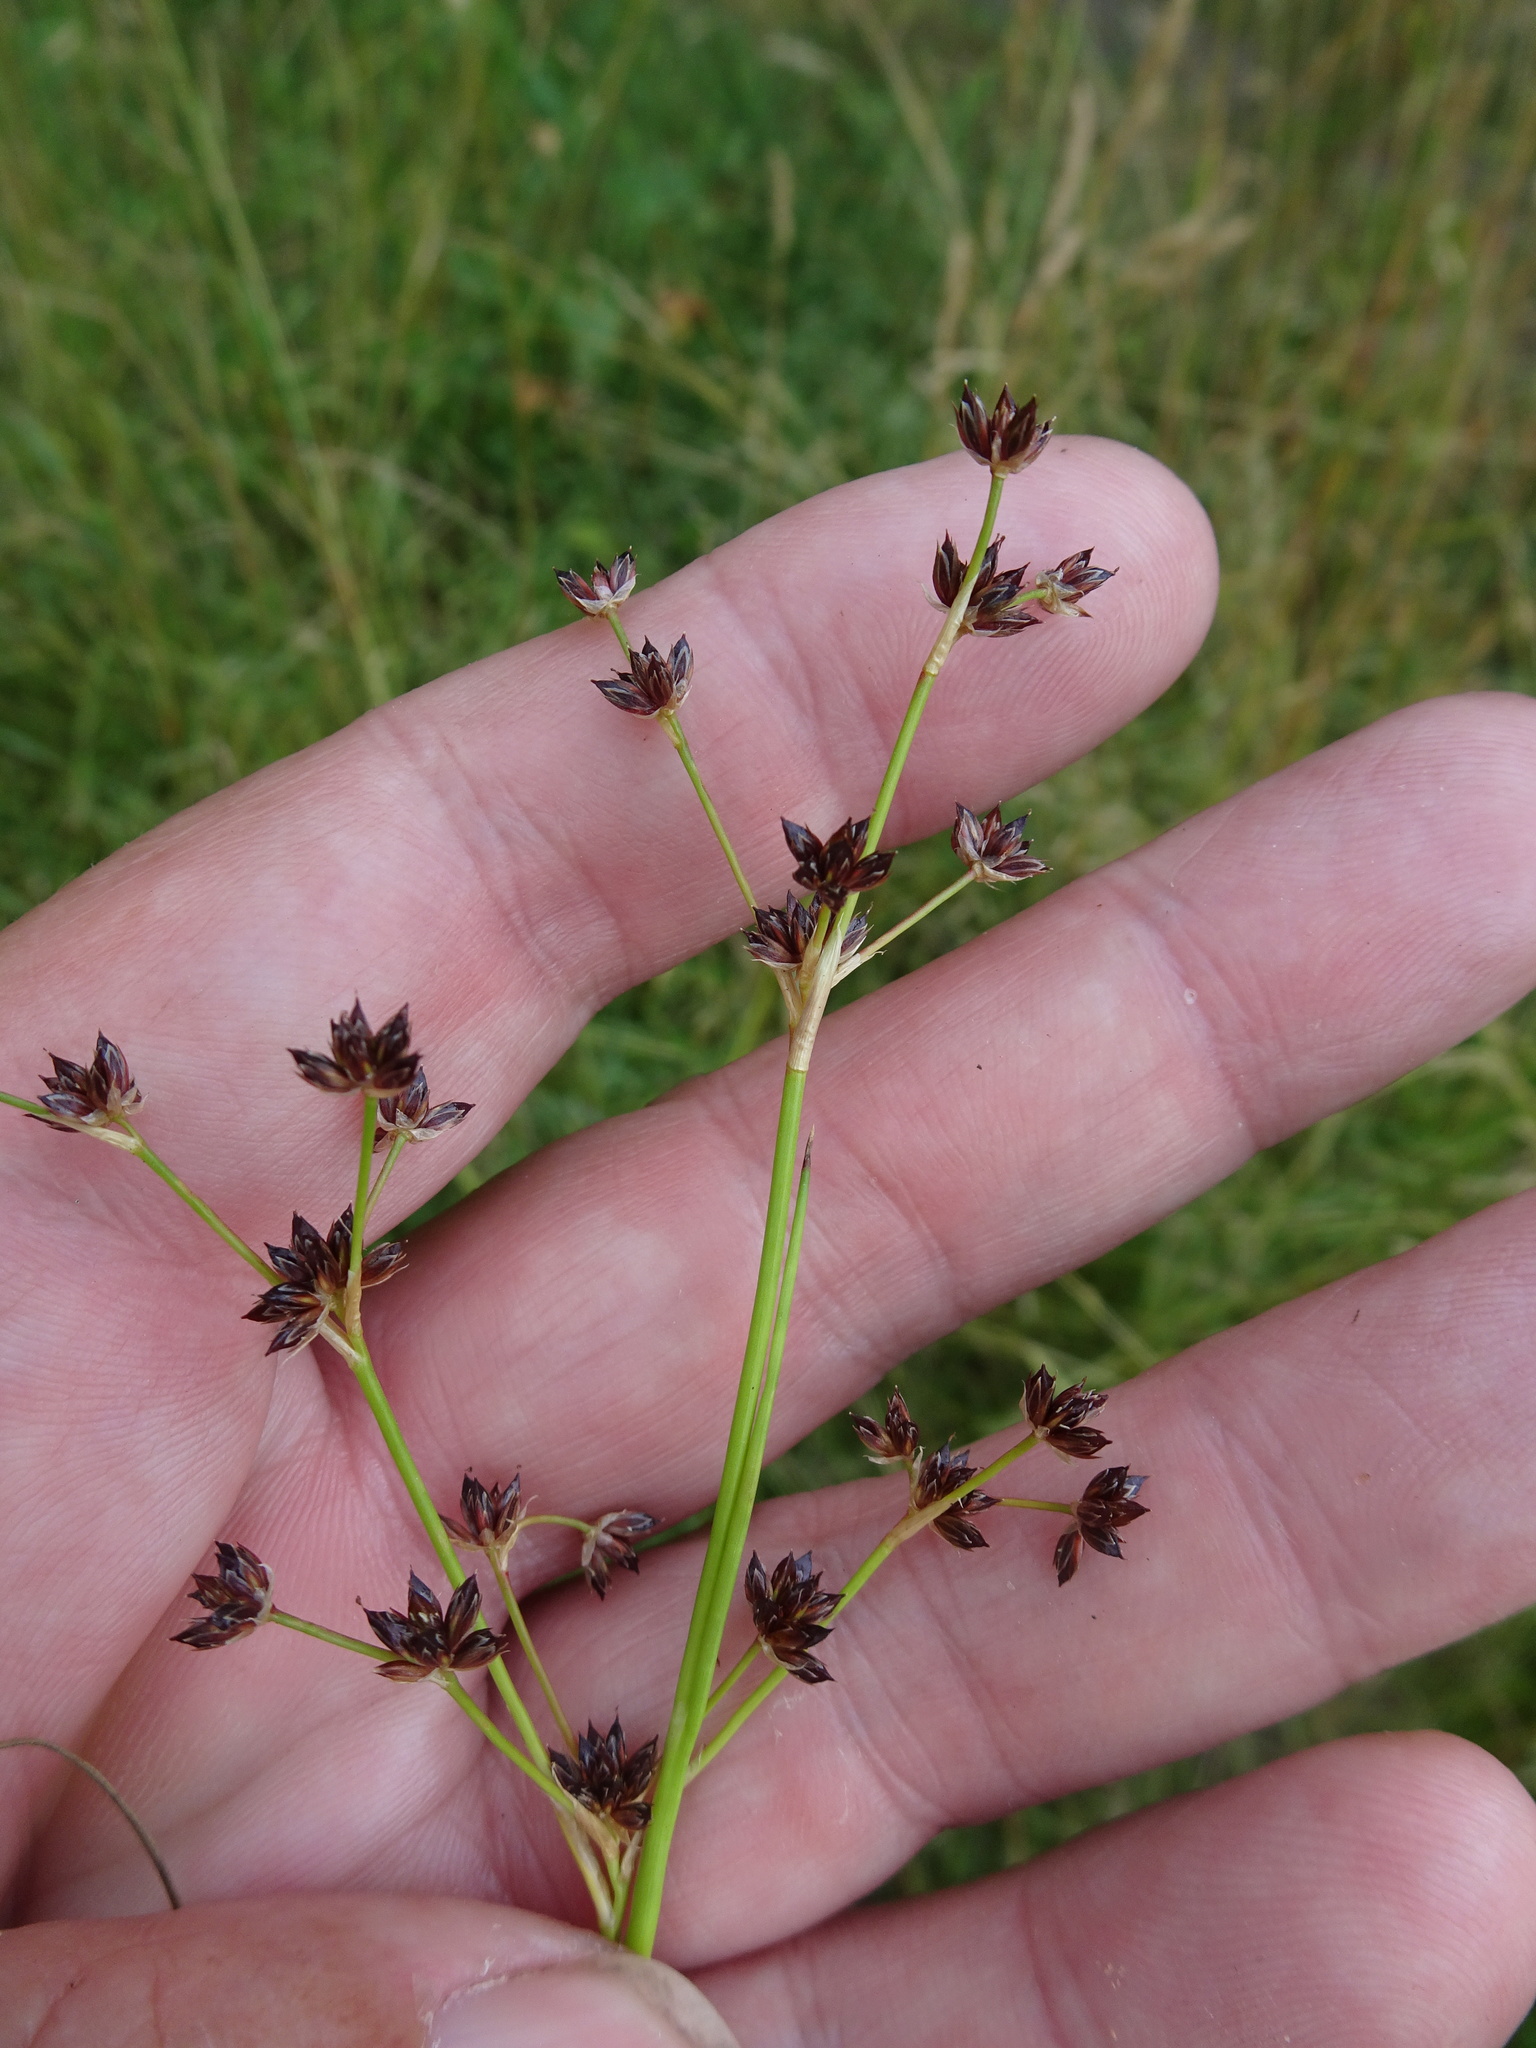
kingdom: Plantae
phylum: Tracheophyta
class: Liliopsida
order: Poales
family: Juncaceae
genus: Juncus
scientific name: Juncus articulatus
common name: Jointed rush
